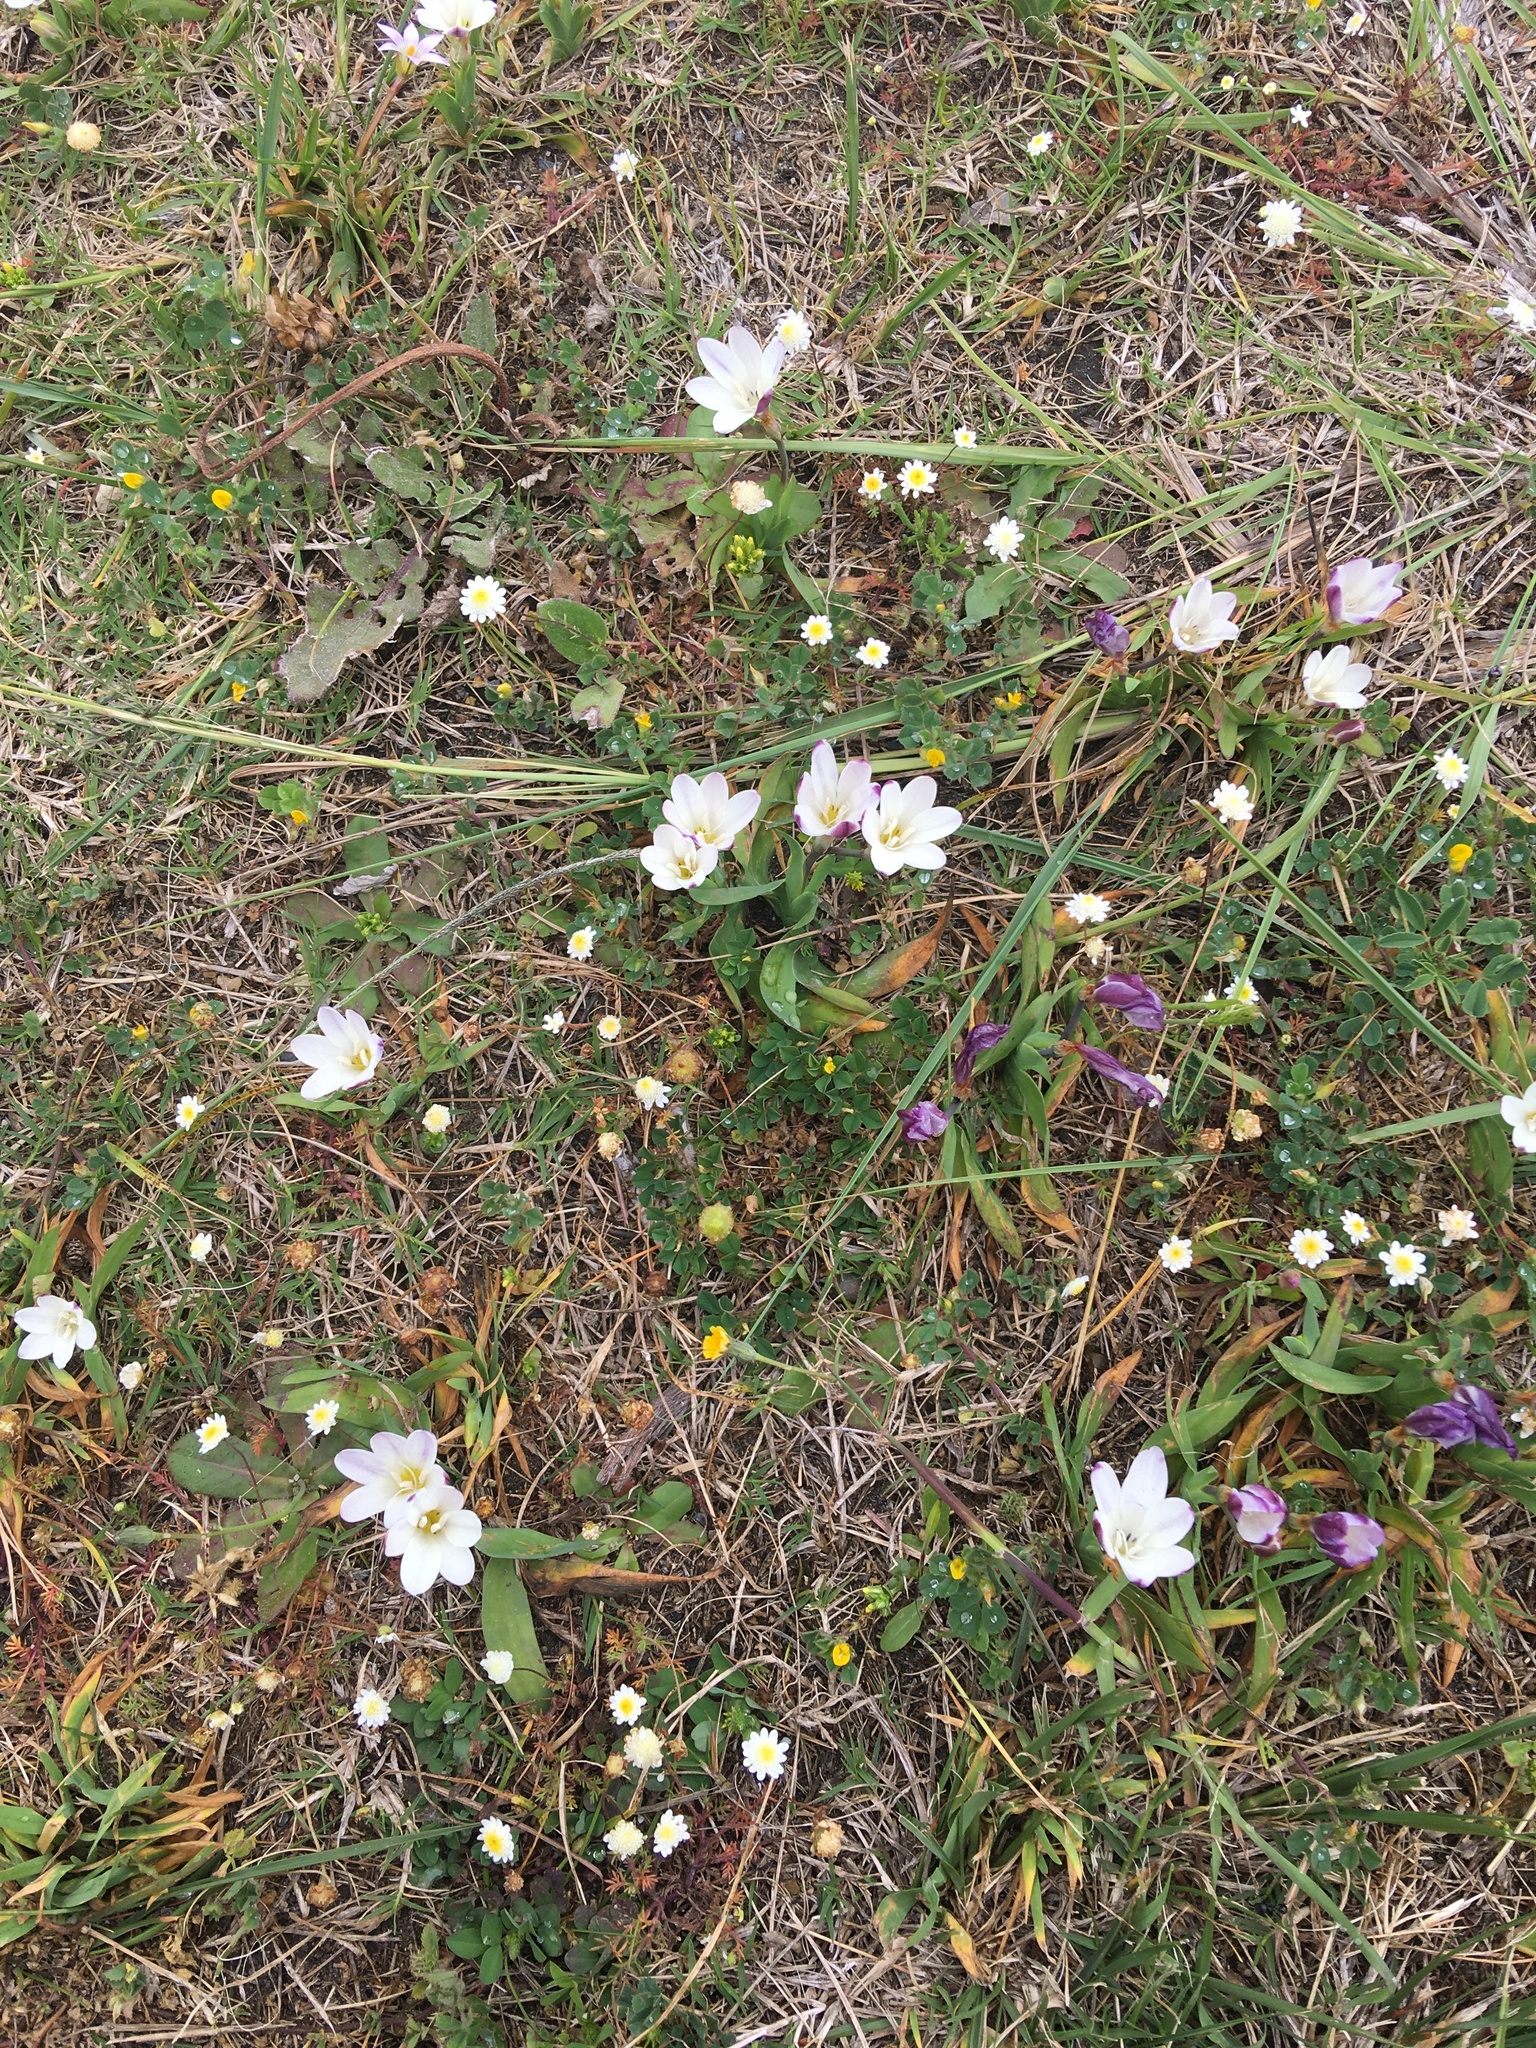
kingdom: Plantae
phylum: Tracheophyta
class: Liliopsida
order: Asparagales
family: Iridaceae
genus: Sparaxis
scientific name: Sparaxis bulbifera
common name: Harlequin-flower
